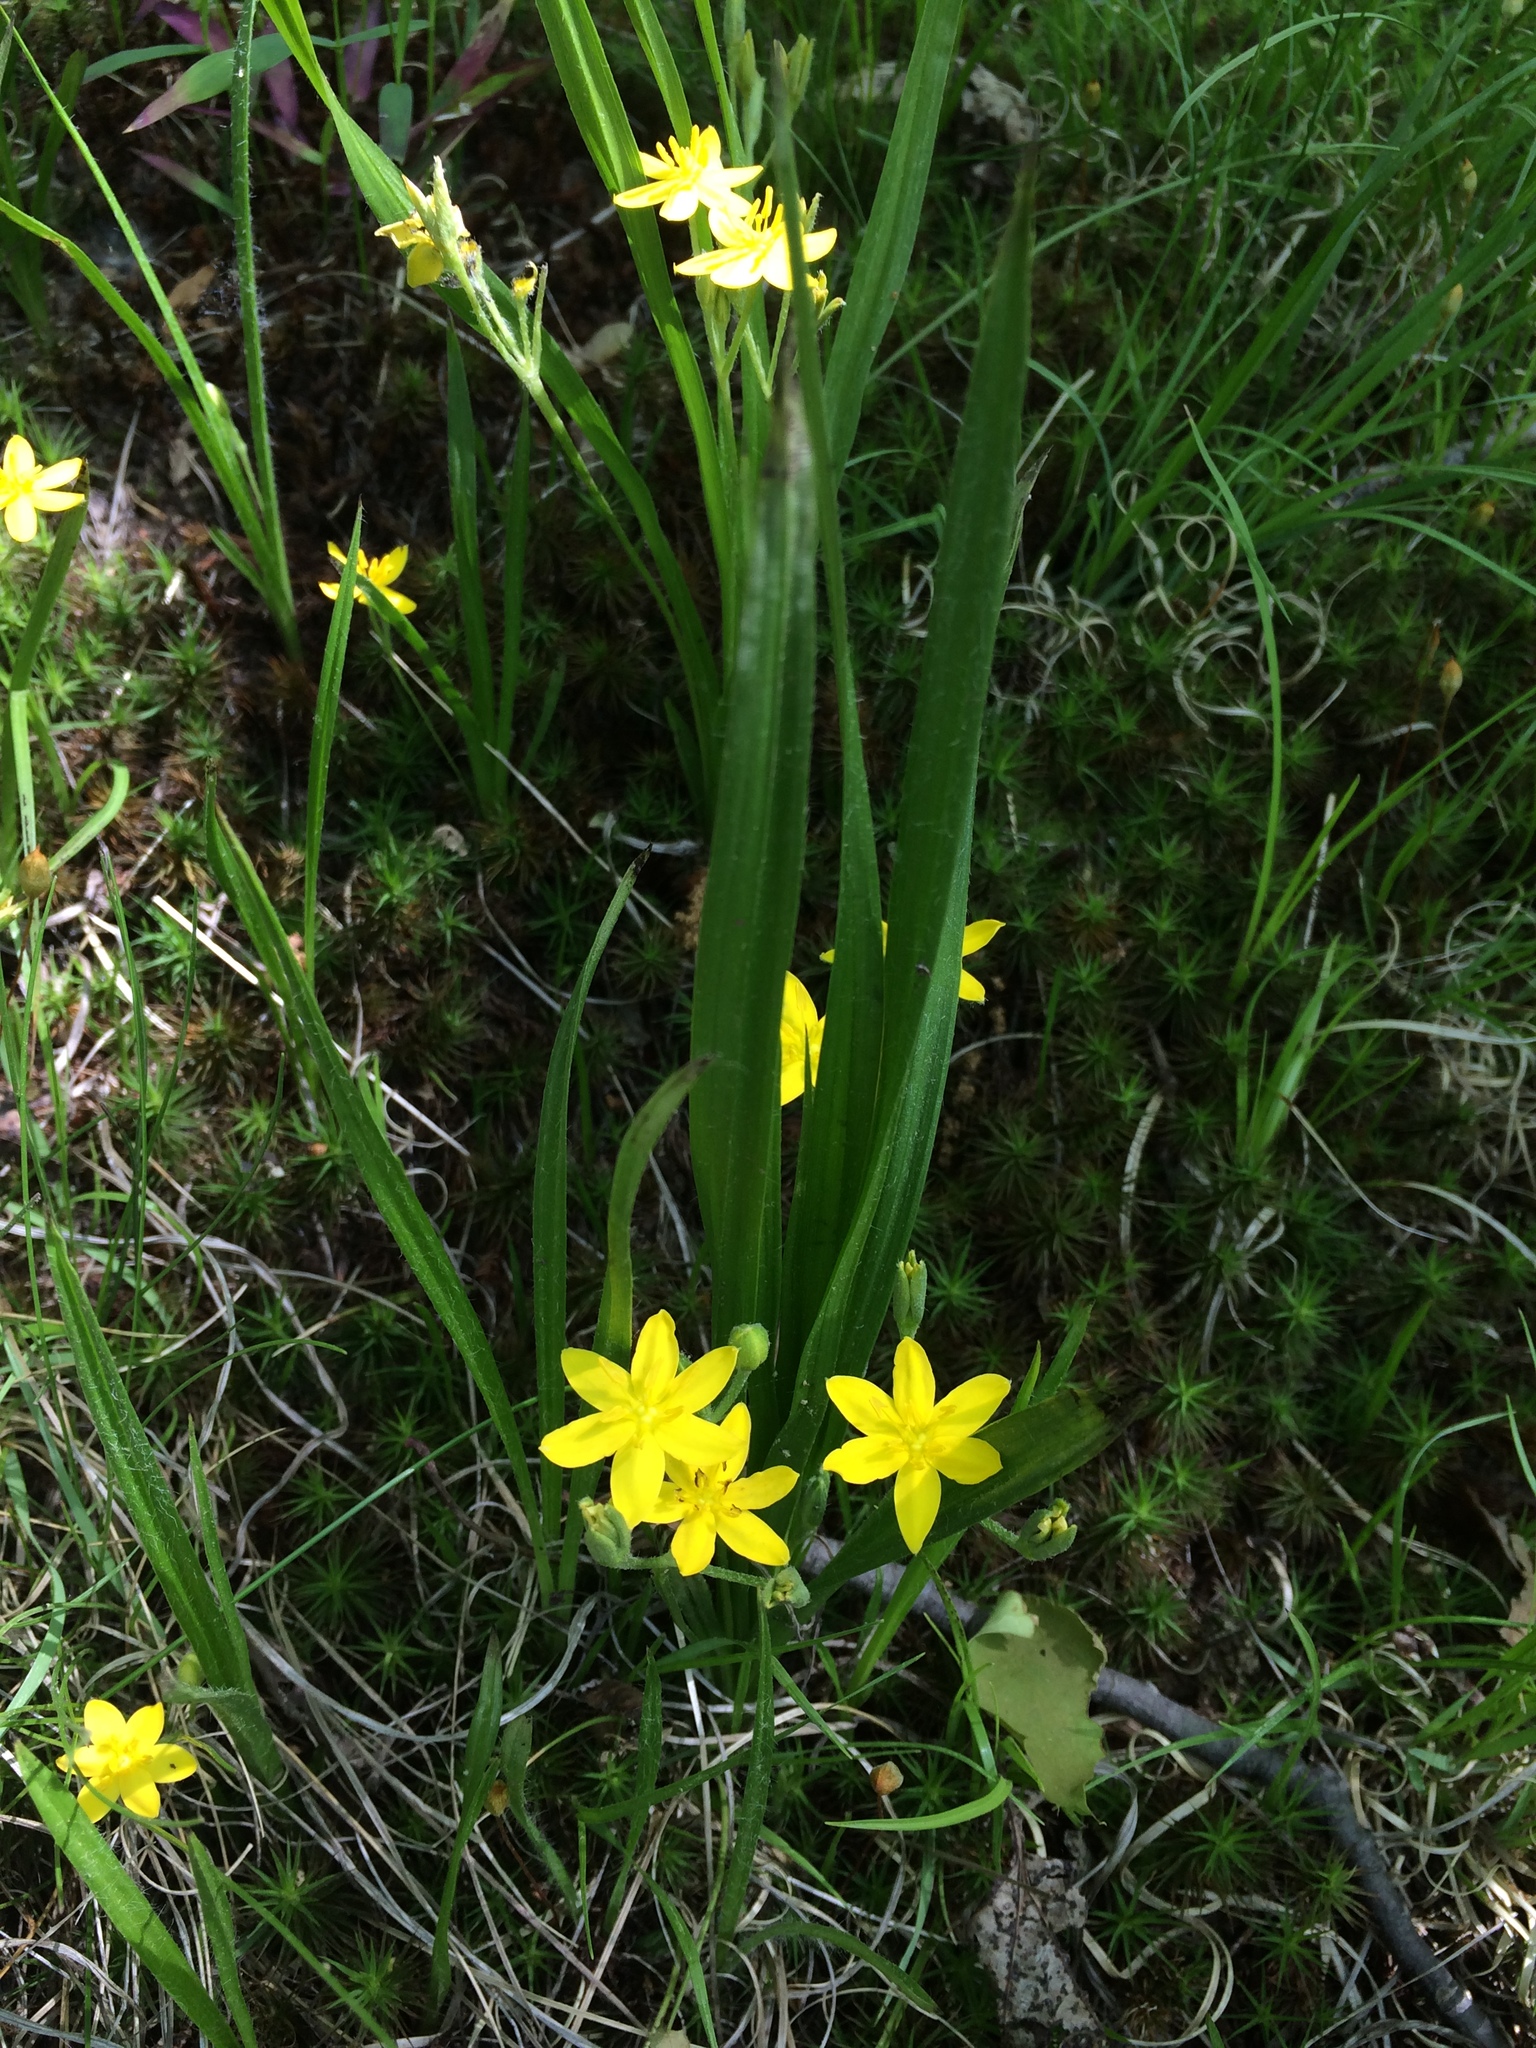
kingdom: Plantae
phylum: Tracheophyta
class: Liliopsida
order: Asparagales
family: Hypoxidaceae
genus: Hypoxis
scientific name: Hypoxis hirsuta
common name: Common goldstar
